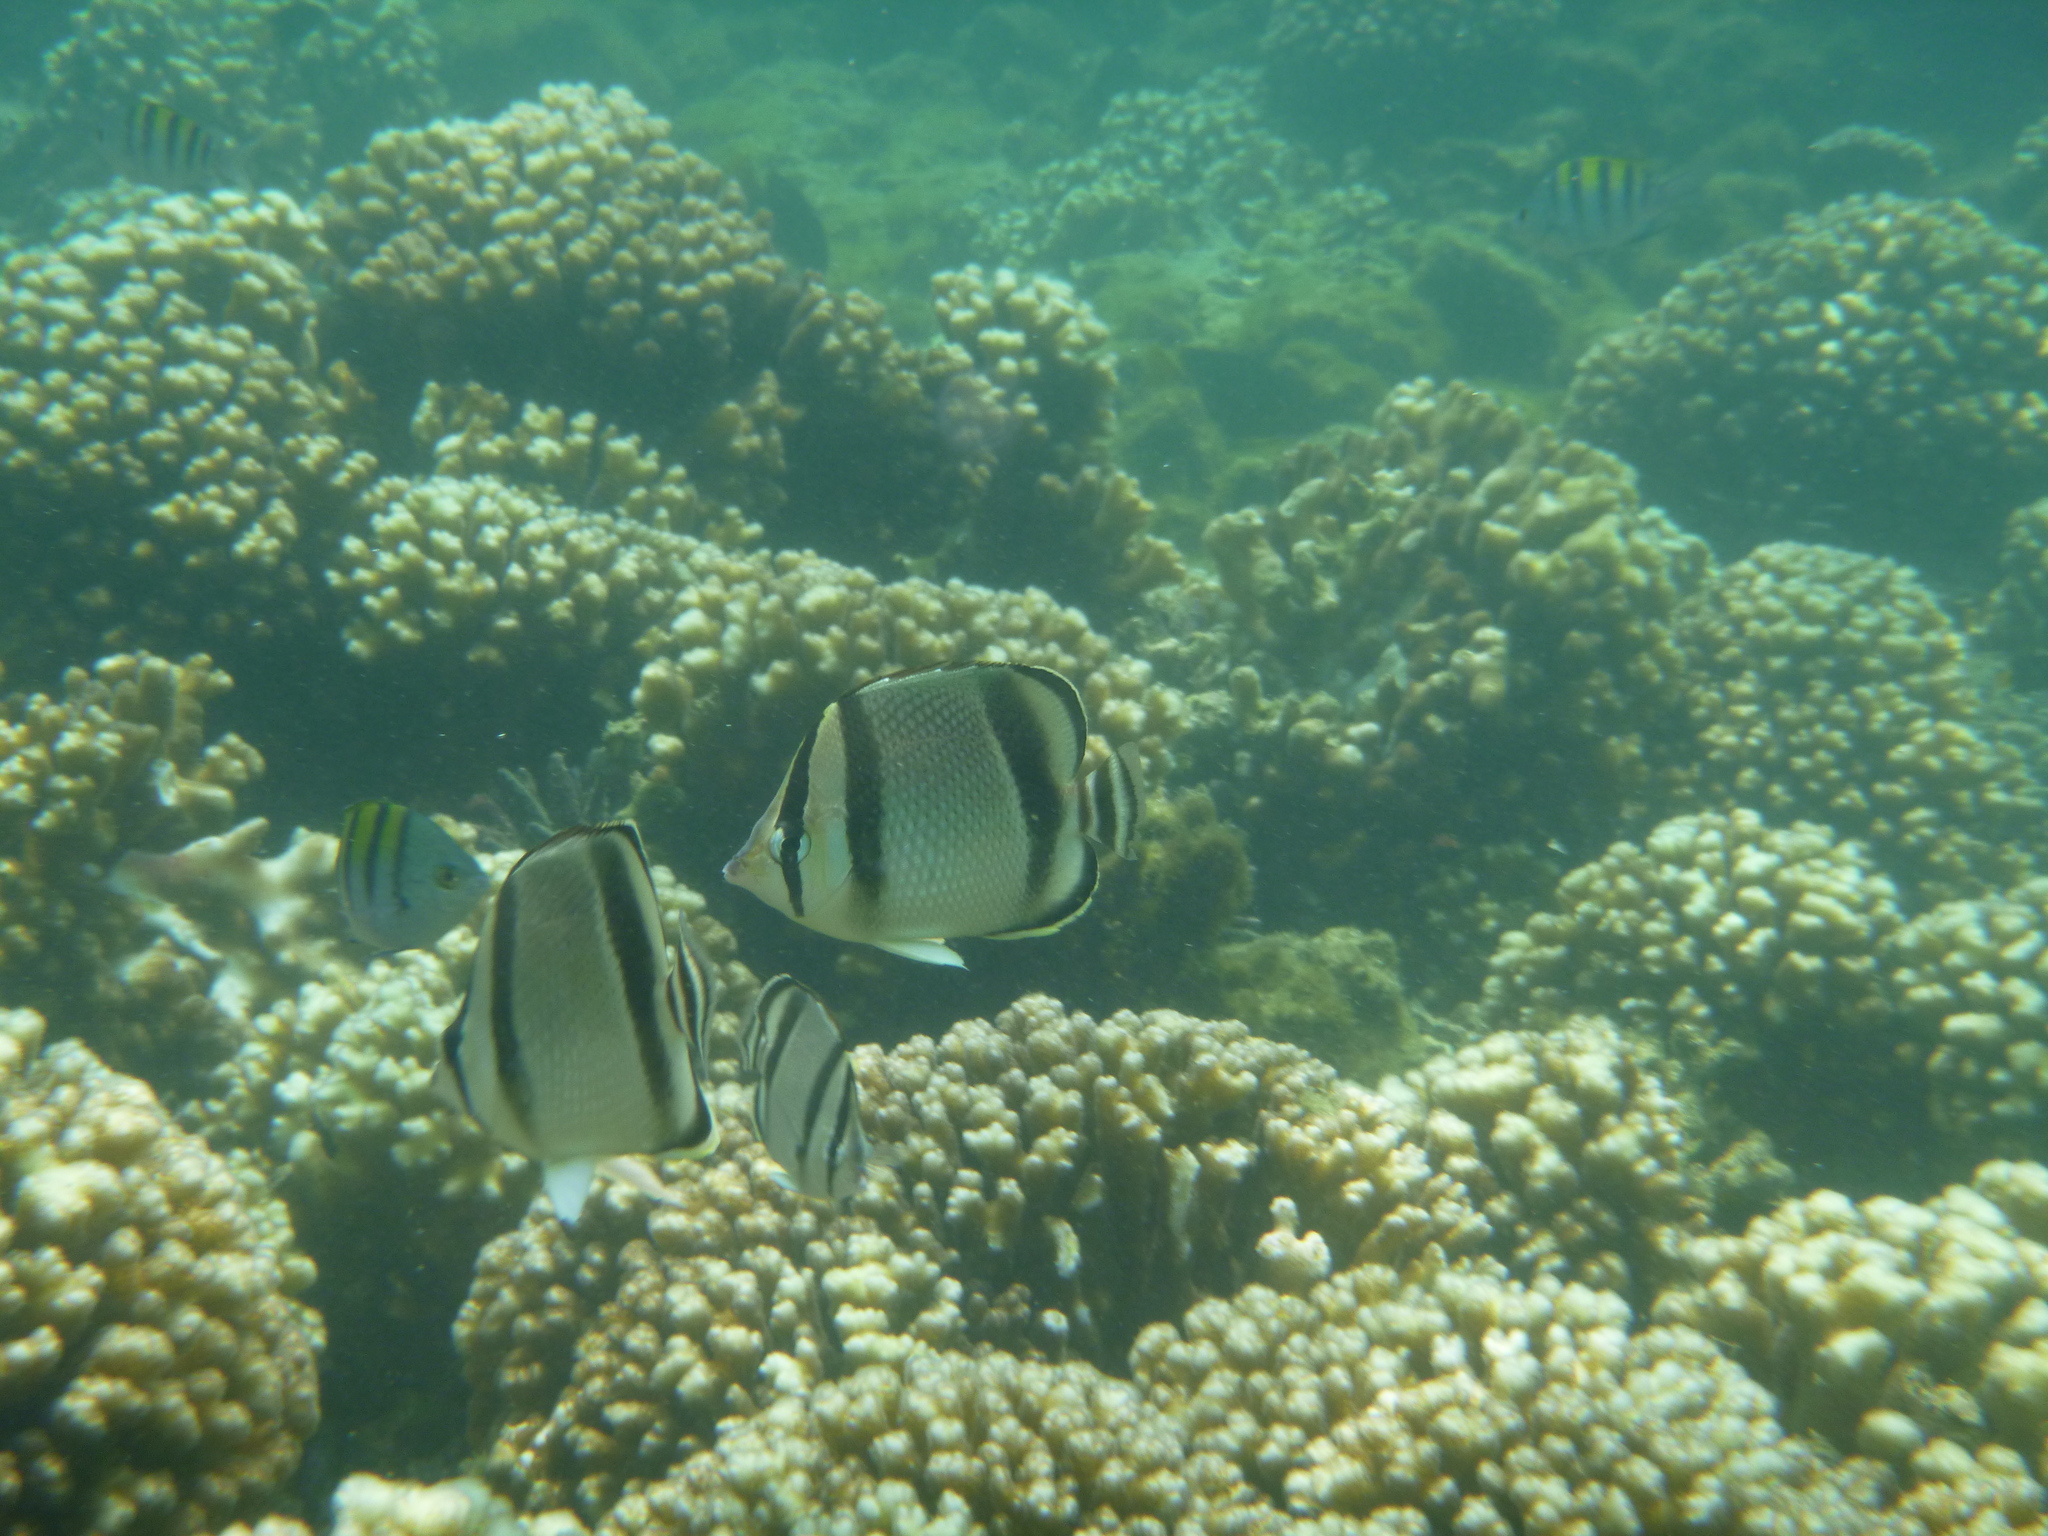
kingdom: Animalia
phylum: Chordata
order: Perciformes
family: Chaetodontidae
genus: Chaetodon
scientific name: Chaetodon humeralis
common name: Threebanded butterflyfish
